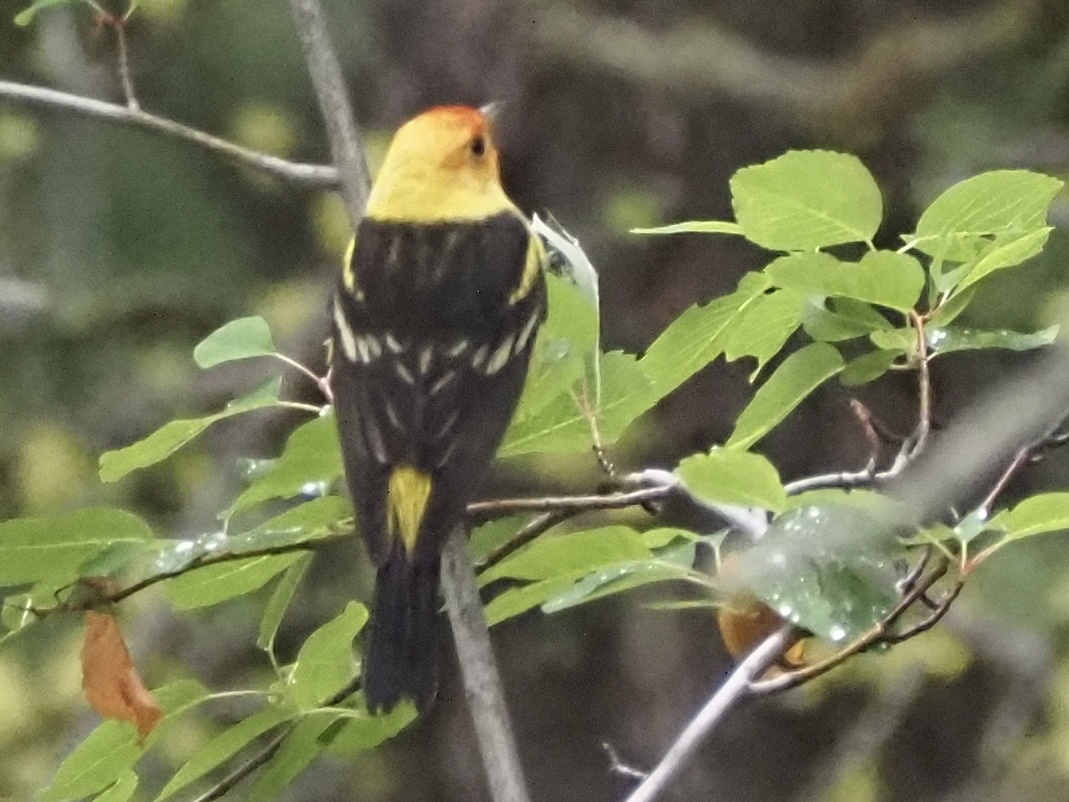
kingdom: Animalia
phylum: Chordata
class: Aves
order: Passeriformes
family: Cardinalidae
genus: Piranga
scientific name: Piranga ludoviciana
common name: Western tanager
